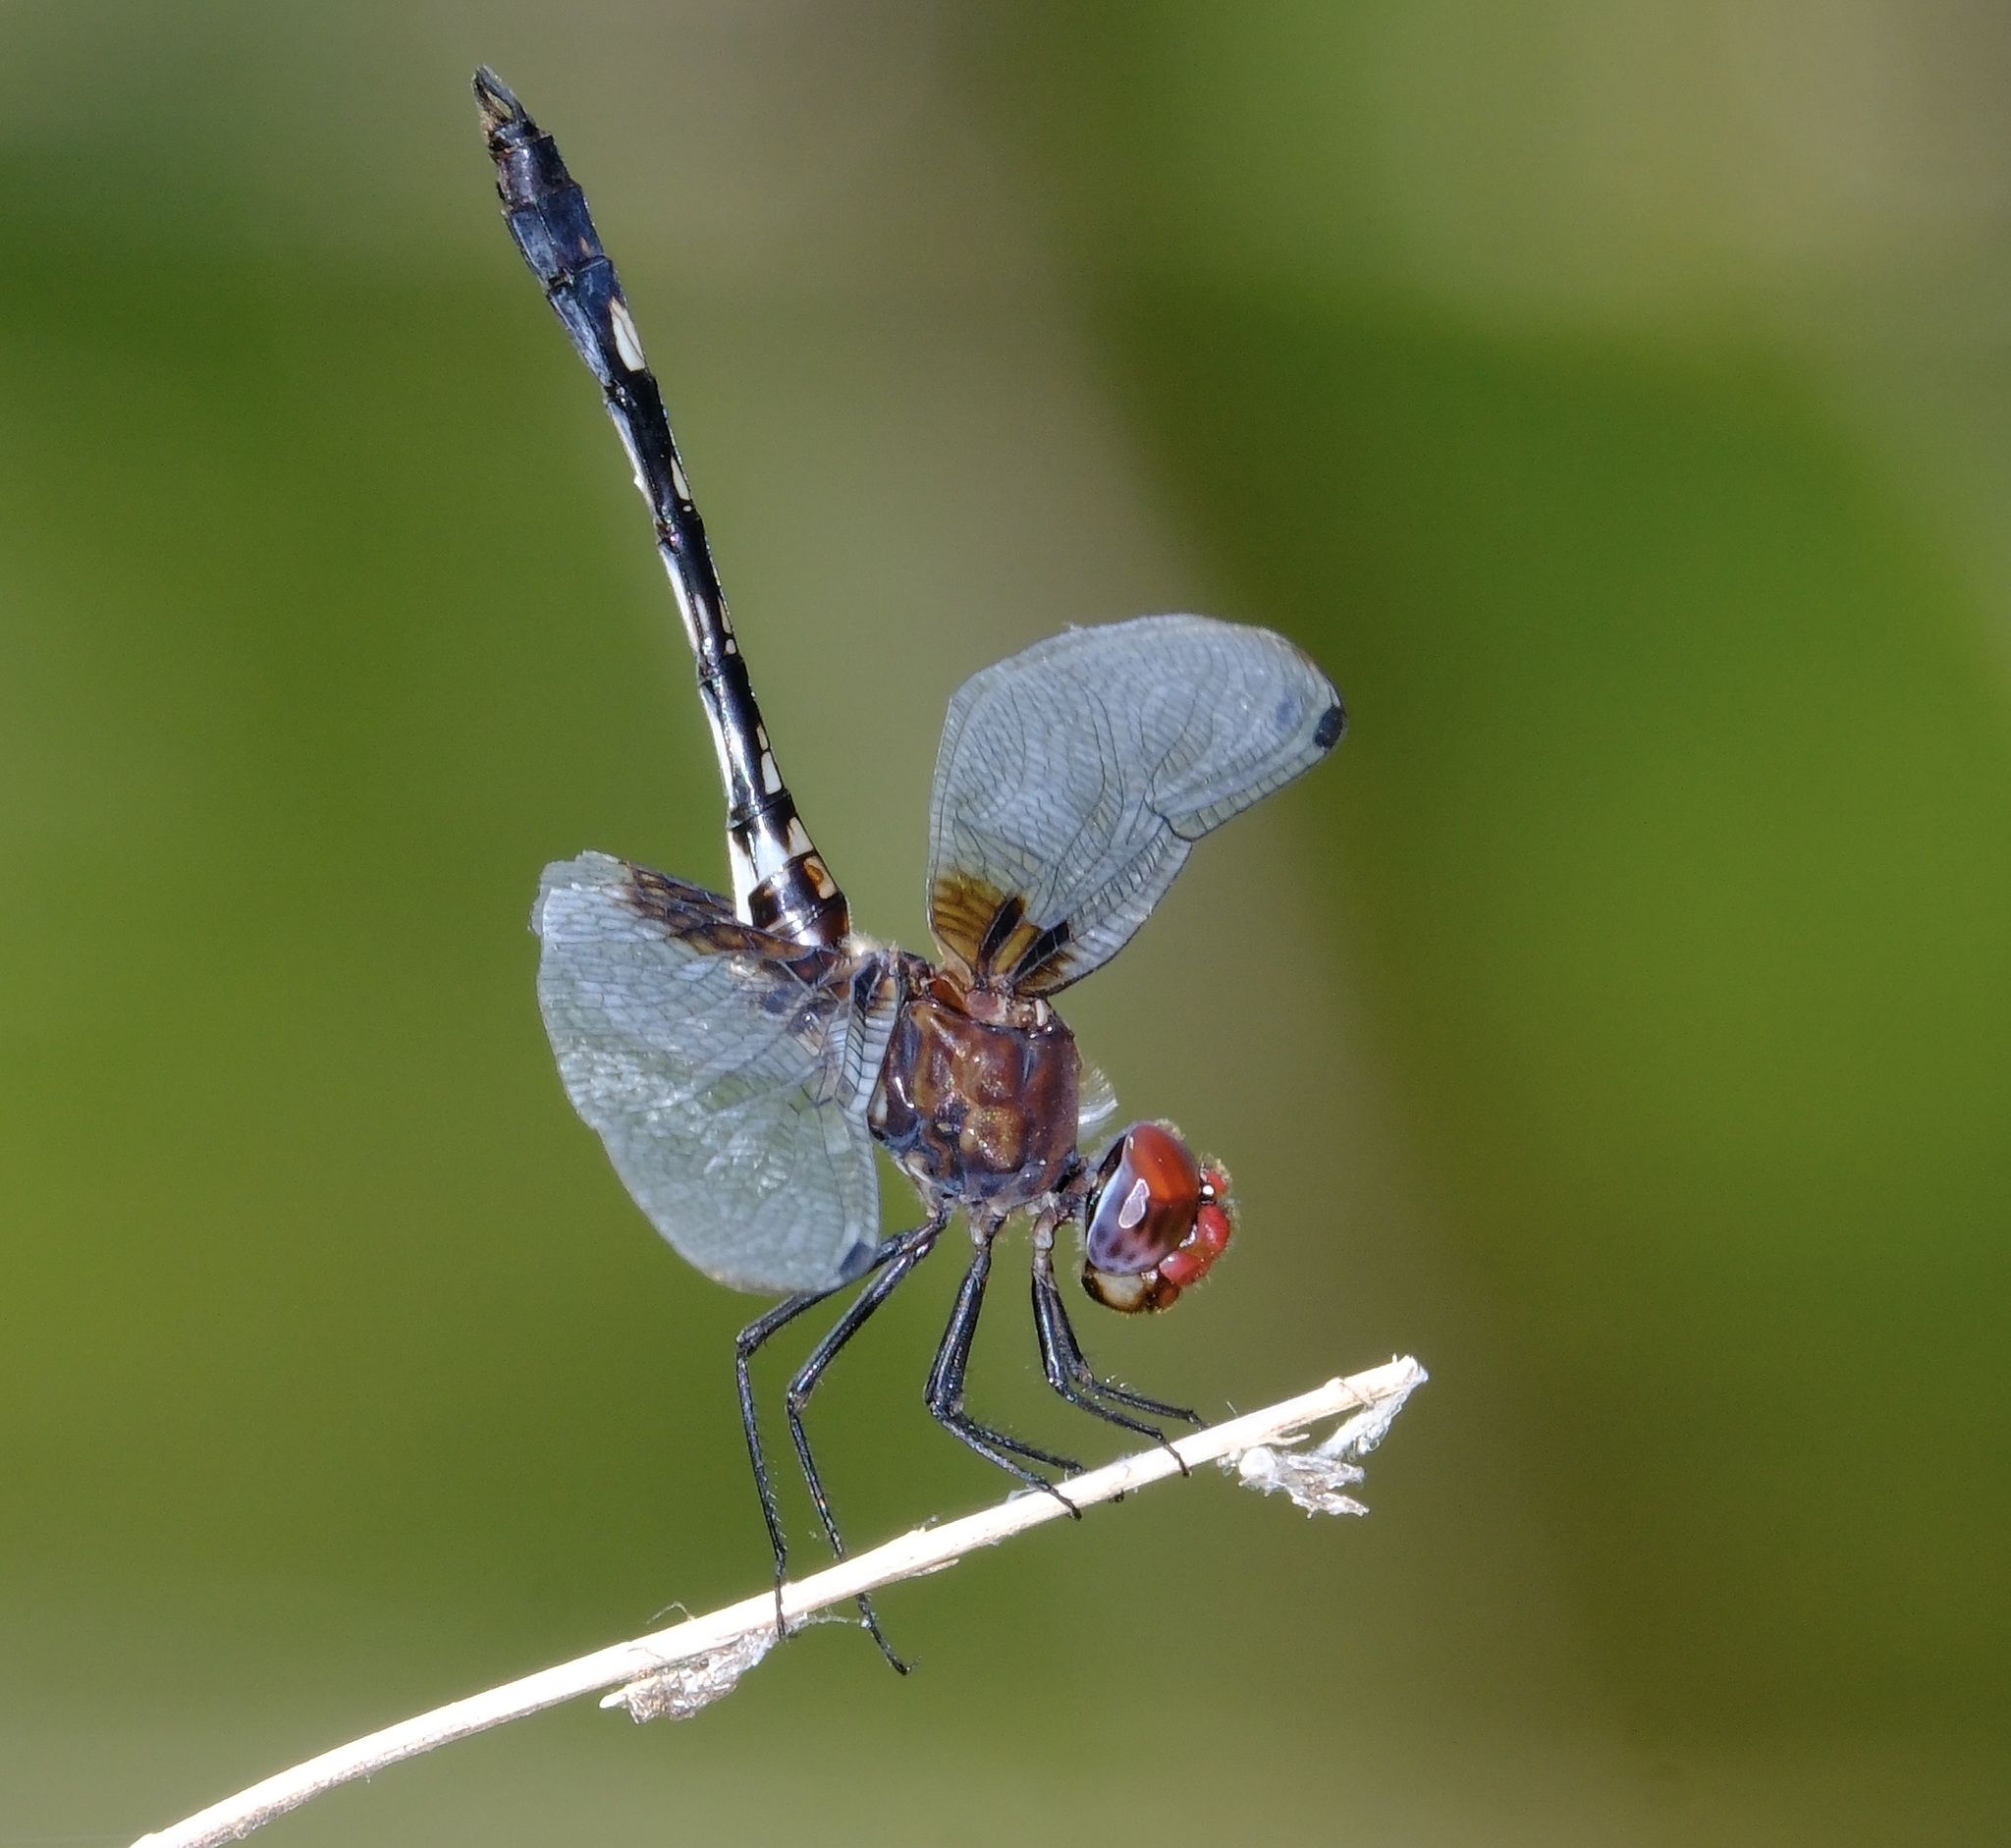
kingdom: Animalia
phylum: Arthropoda
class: Insecta
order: Odonata
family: Libellulidae
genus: Dythemis
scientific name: Dythemis fugax
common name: Checkered setwing
